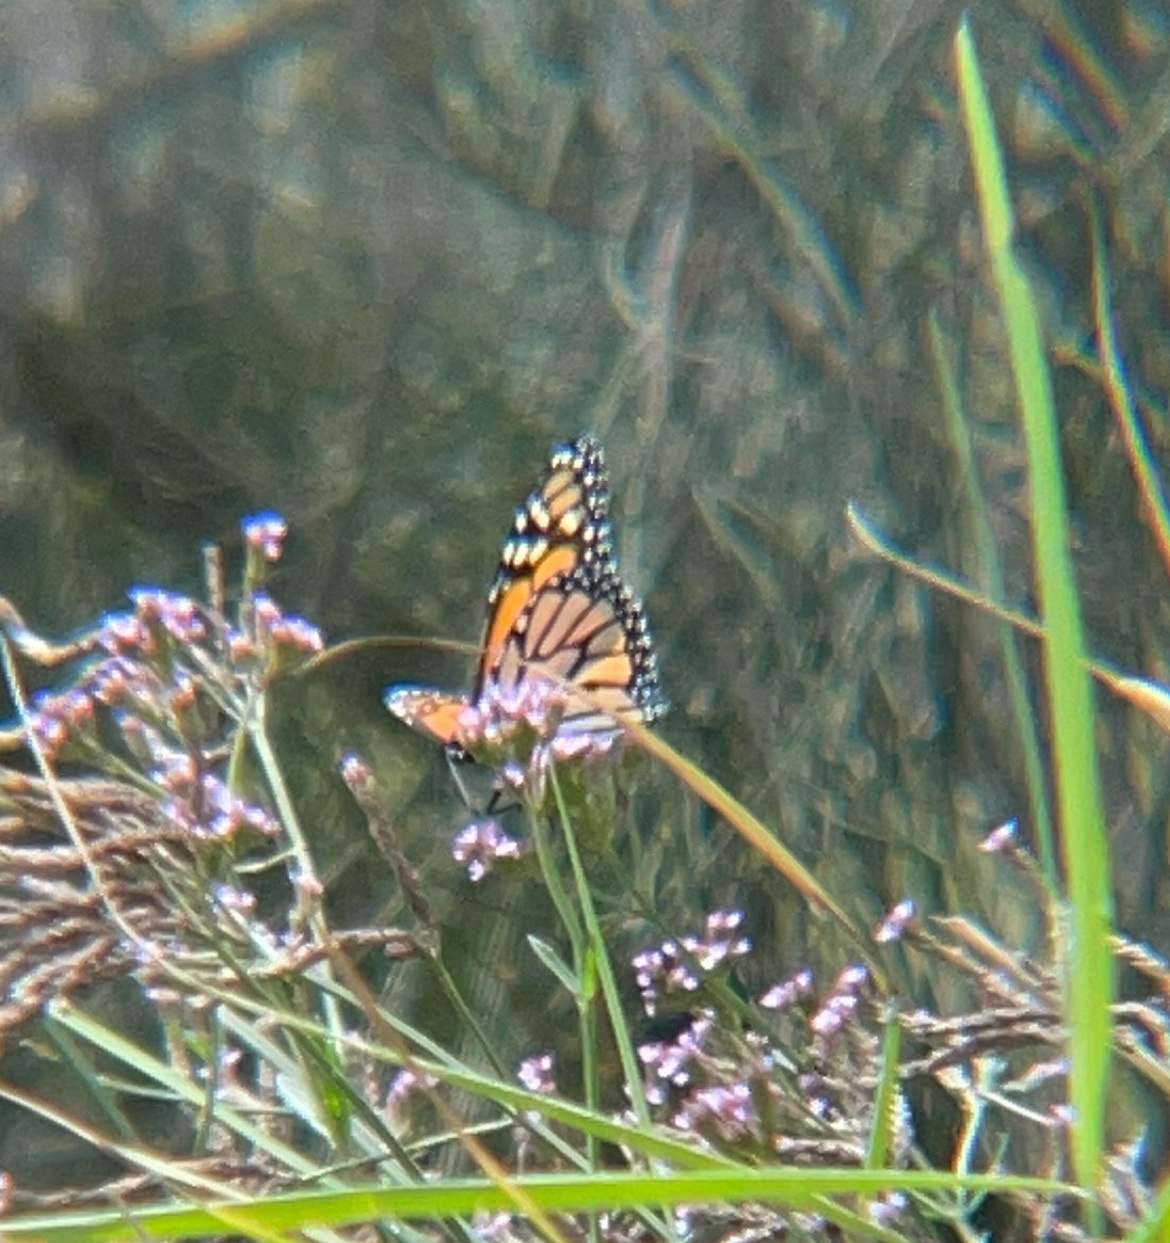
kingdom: Animalia
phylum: Arthropoda
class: Insecta
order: Lepidoptera
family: Nymphalidae
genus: Danaus
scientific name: Danaus plexippus
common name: Monarch
